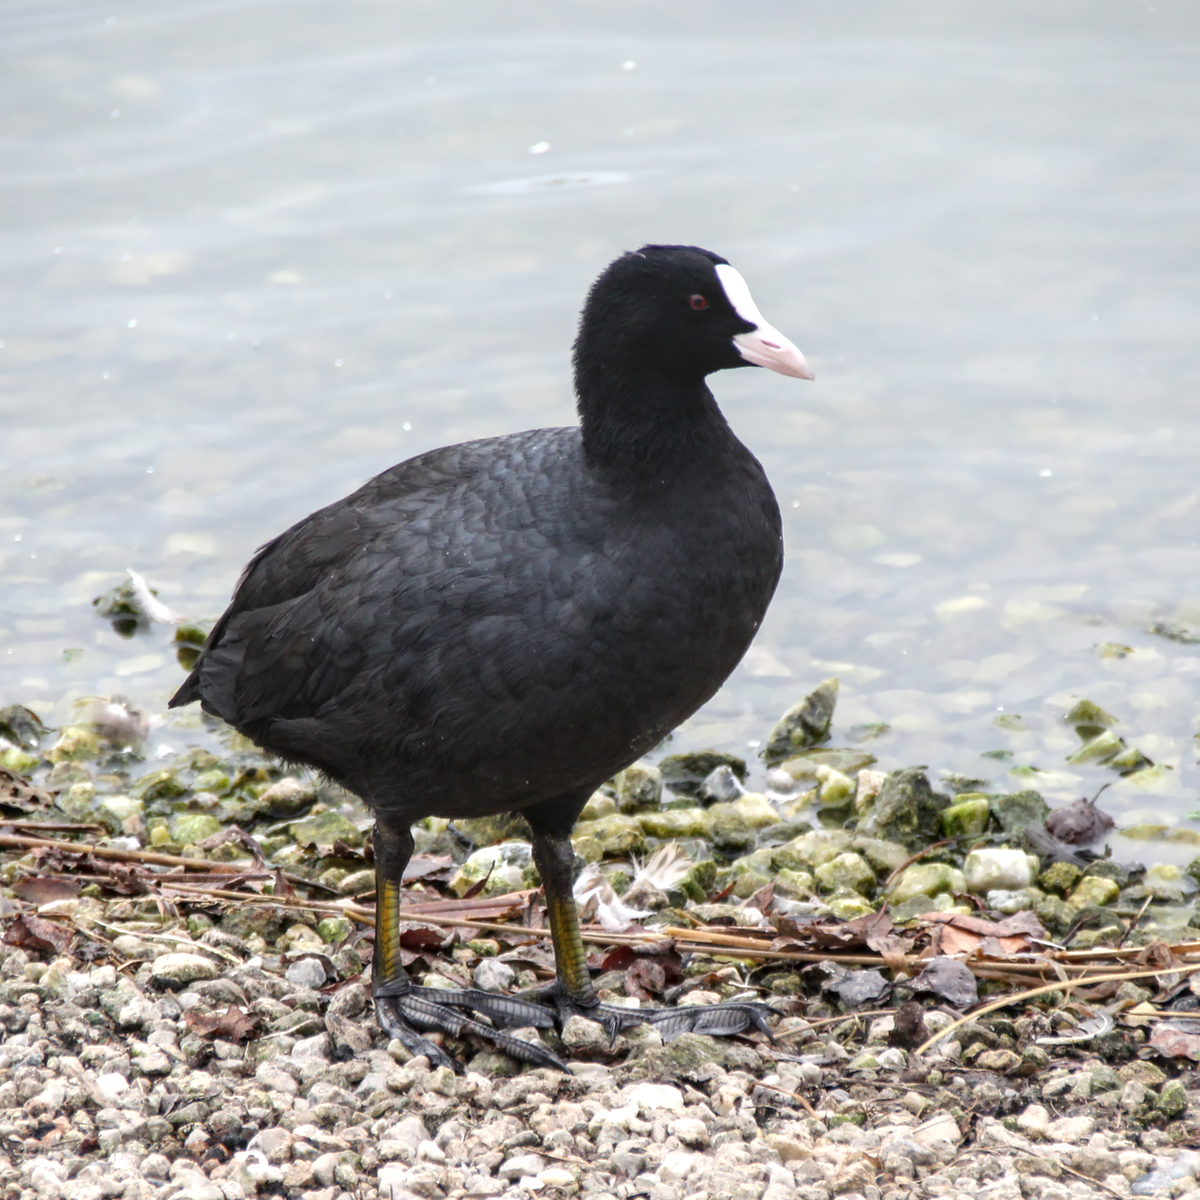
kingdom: Animalia
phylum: Chordata
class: Aves
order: Gruiformes
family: Rallidae
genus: Fulica
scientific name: Fulica atra
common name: Eurasian coot
